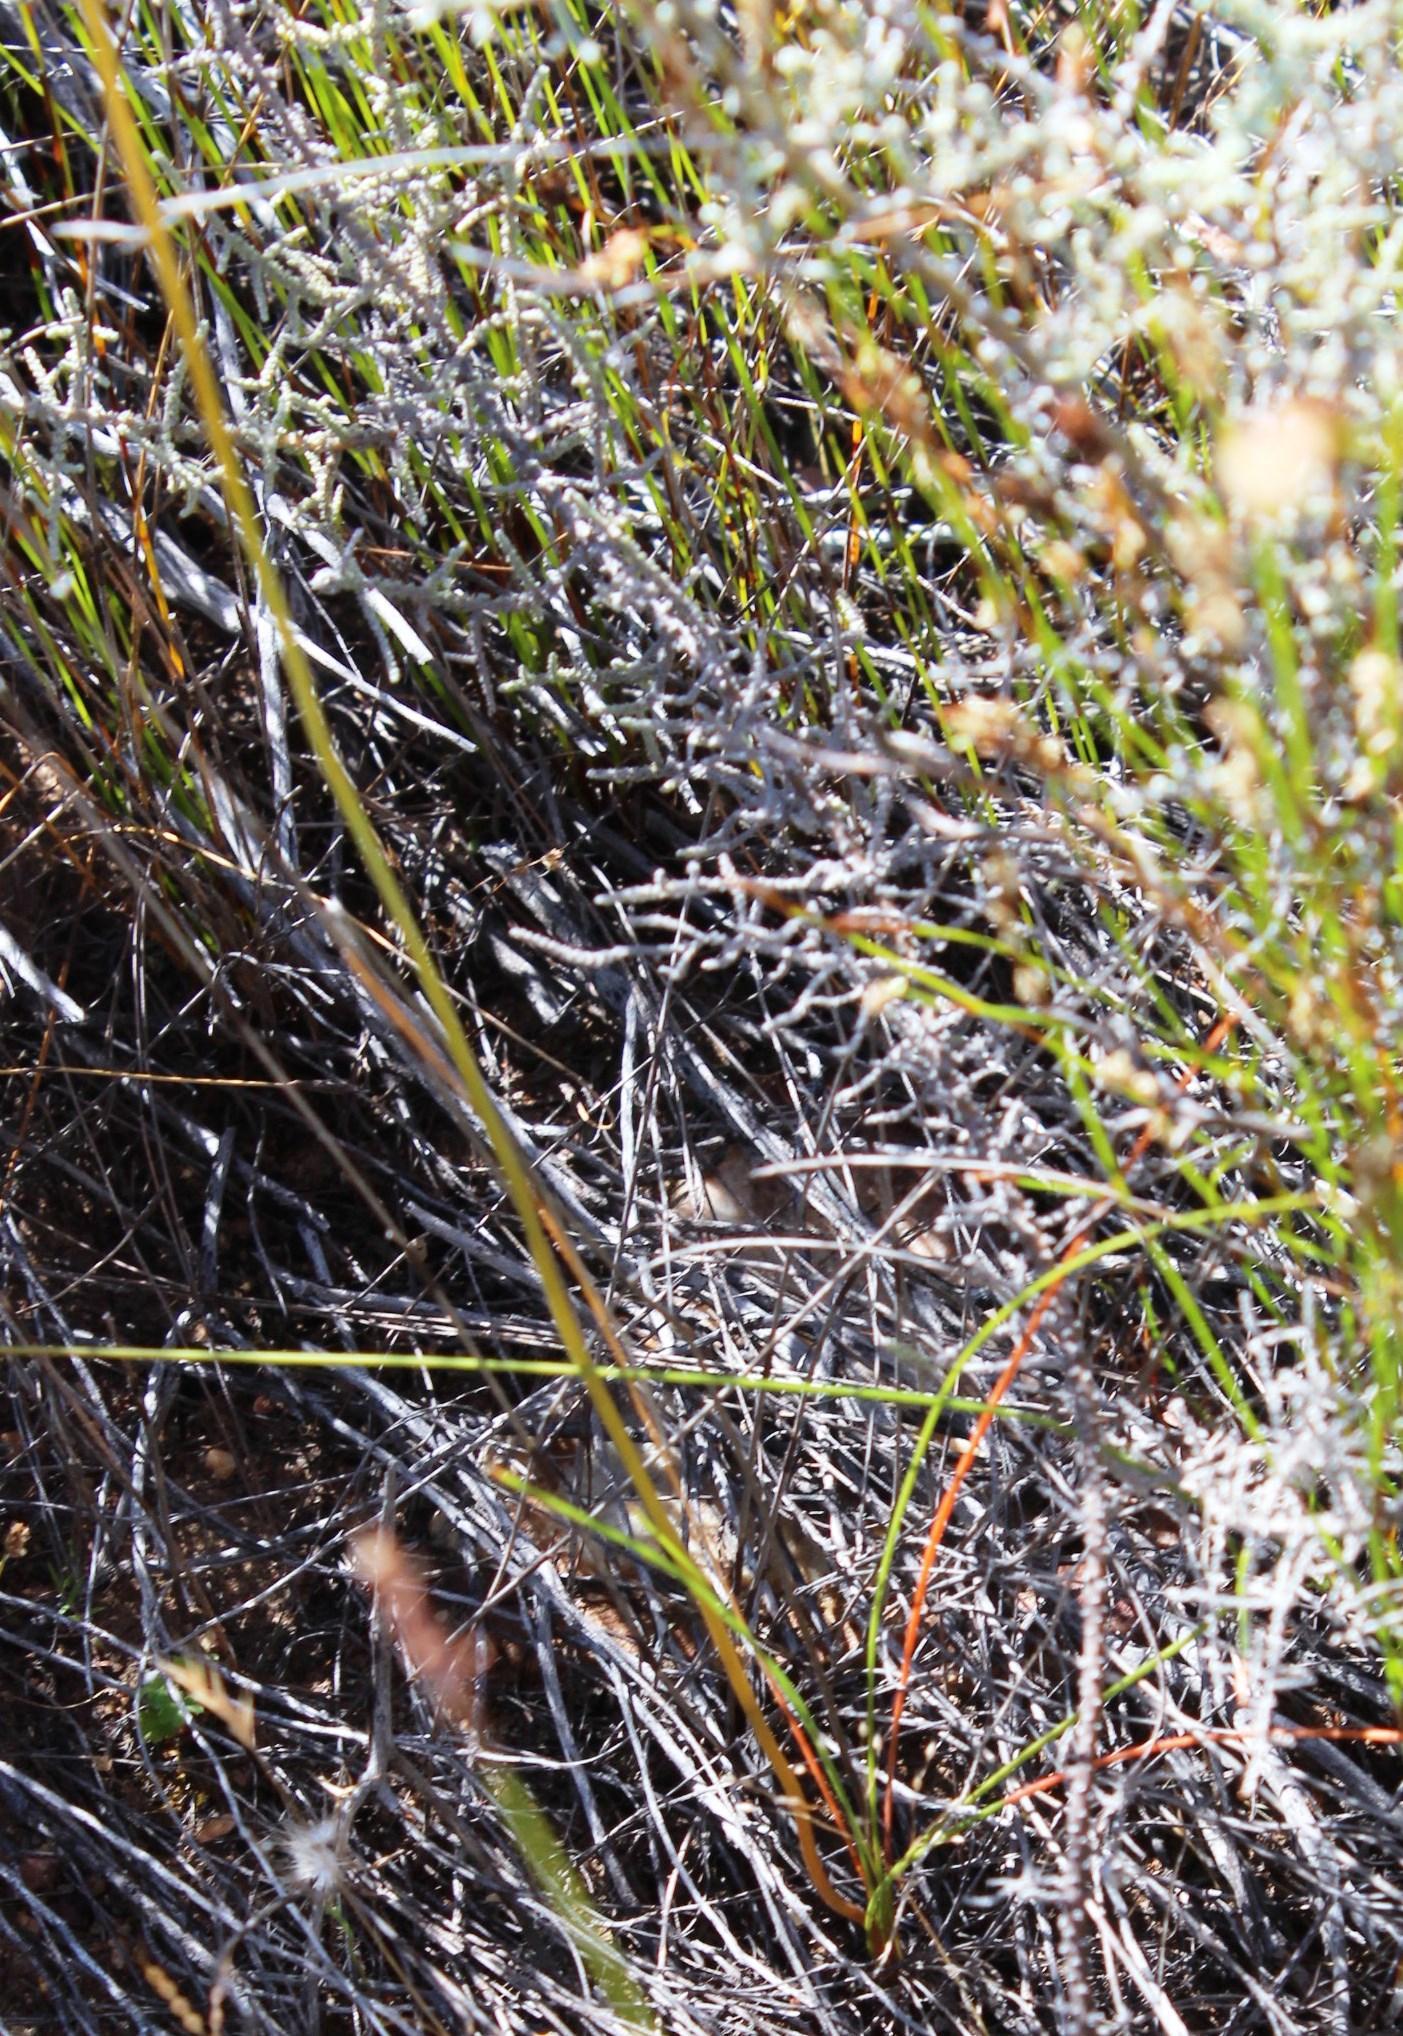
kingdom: Plantae
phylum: Tracheophyta
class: Liliopsida
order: Asparagales
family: Asphodelaceae
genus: Bulbinella
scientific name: Bulbinella triquetra
